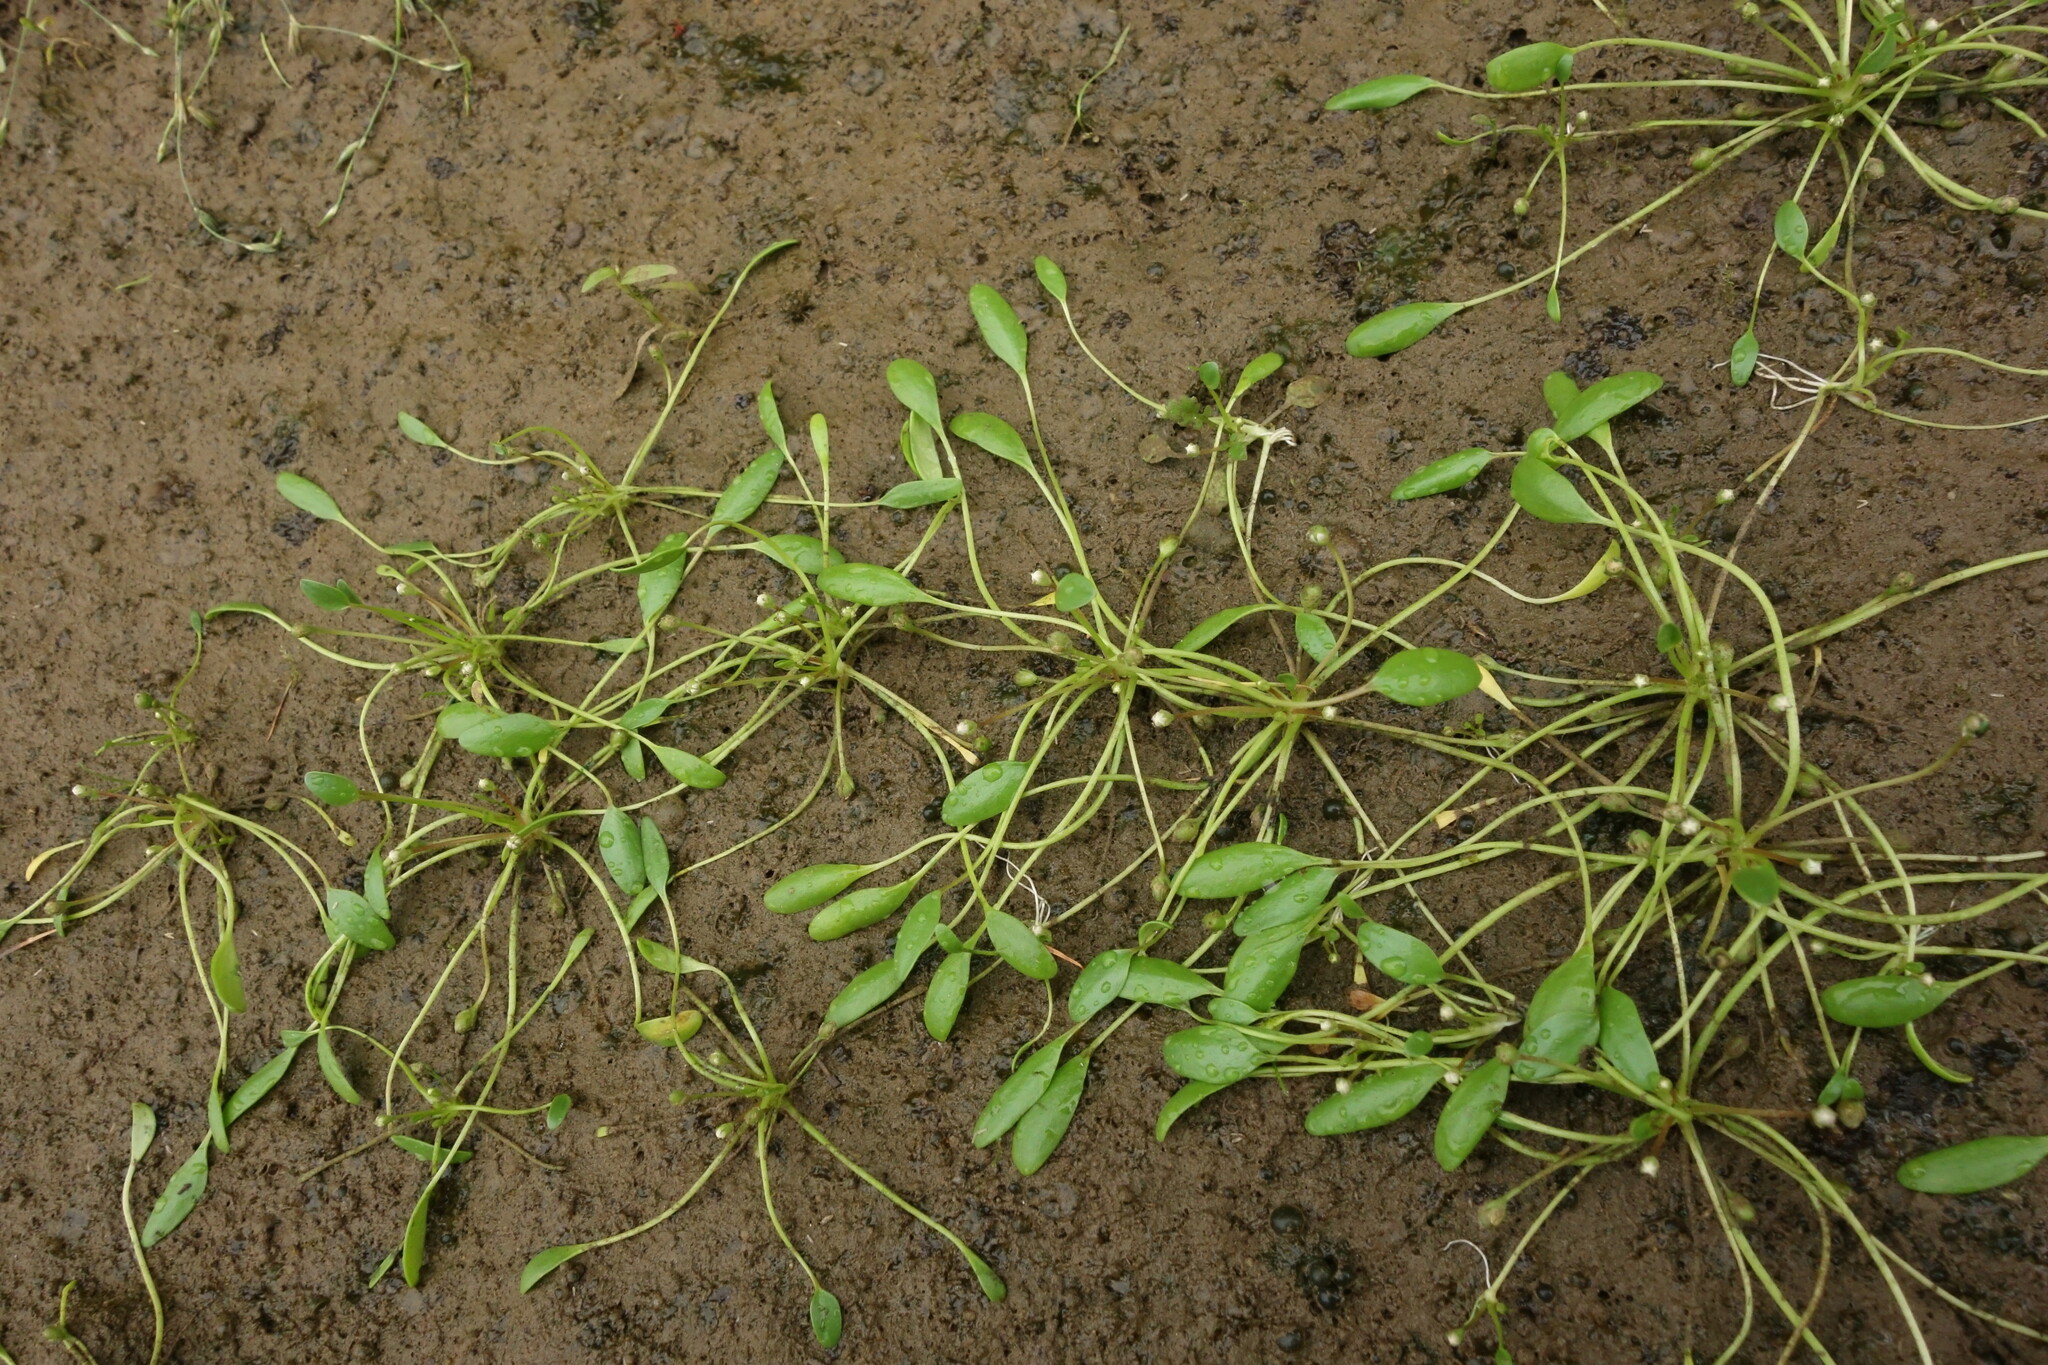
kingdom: Plantae
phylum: Tracheophyta
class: Magnoliopsida
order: Lamiales
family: Scrophulariaceae
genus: Limosella
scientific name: Limosella aquatica
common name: Mudwort
